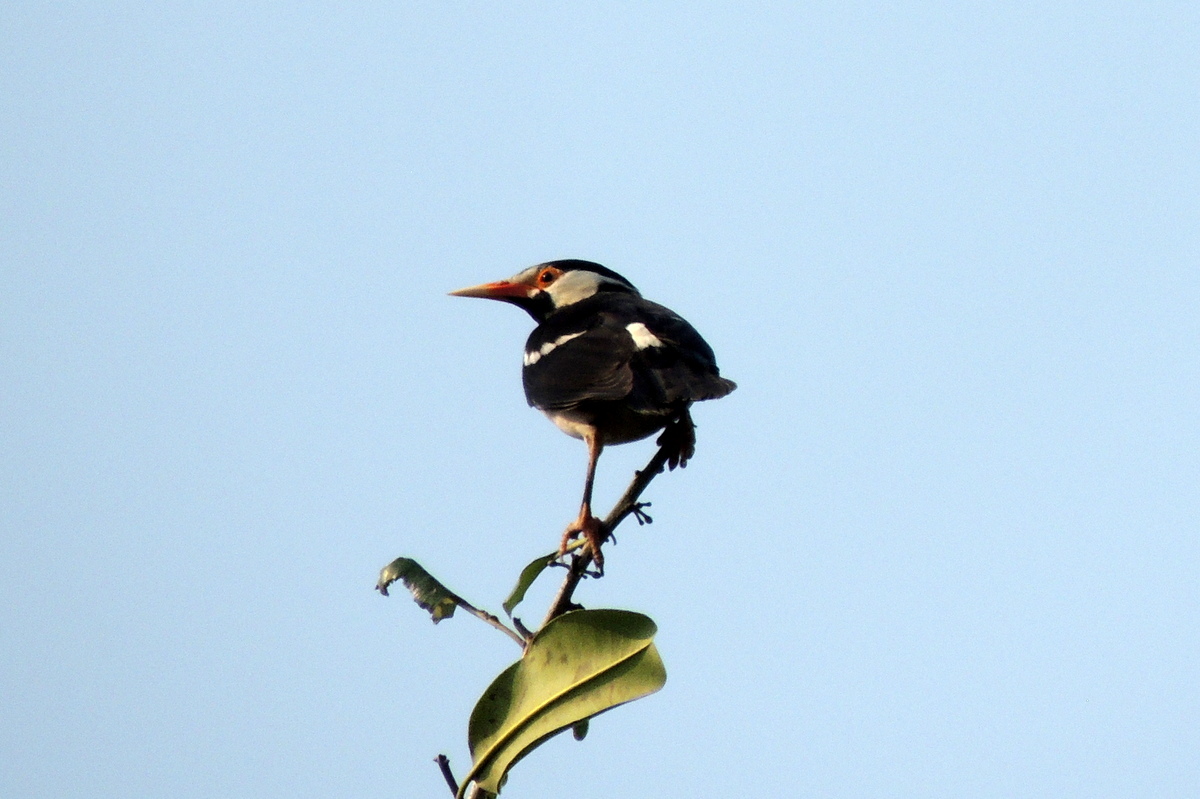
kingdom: Animalia
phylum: Chordata
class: Aves
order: Passeriformes
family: Sturnidae
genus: Gracupica
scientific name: Gracupica contra
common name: Pied myna
